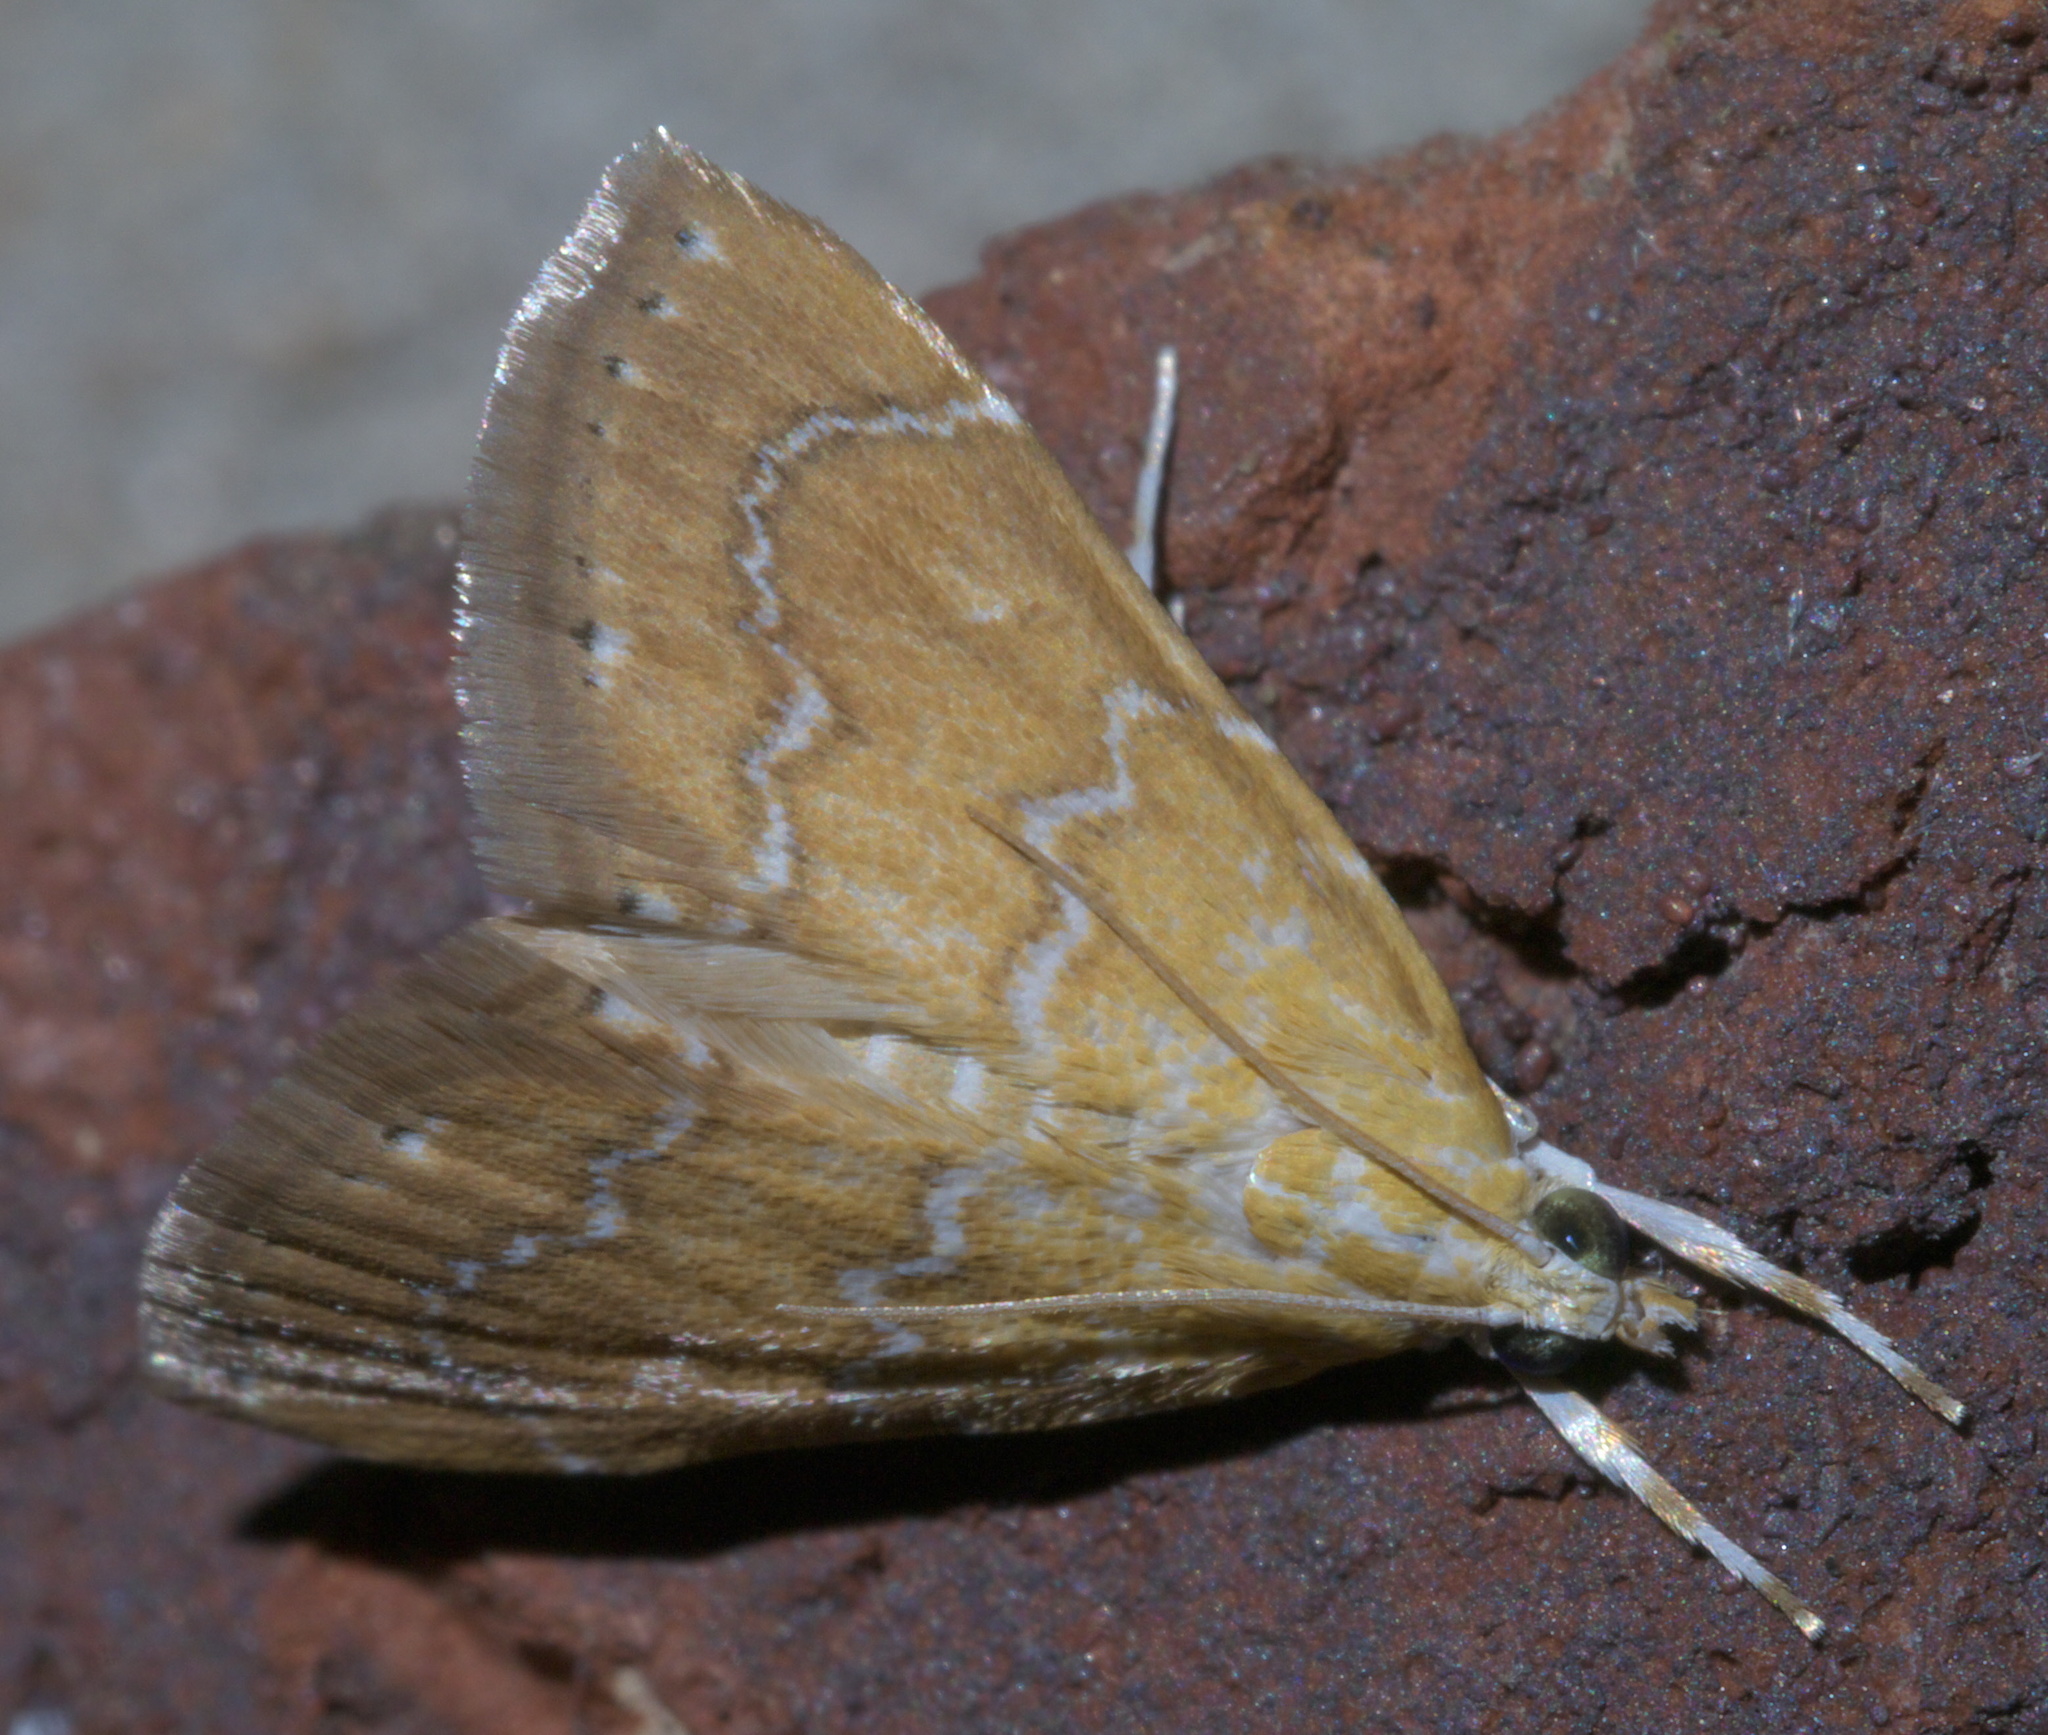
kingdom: Animalia
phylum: Arthropoda
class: Insecta
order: Lepidoptera
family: Crambidae
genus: Glaphyria
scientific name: Glaphyria sesquistrialis
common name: White-roped glaphyria
